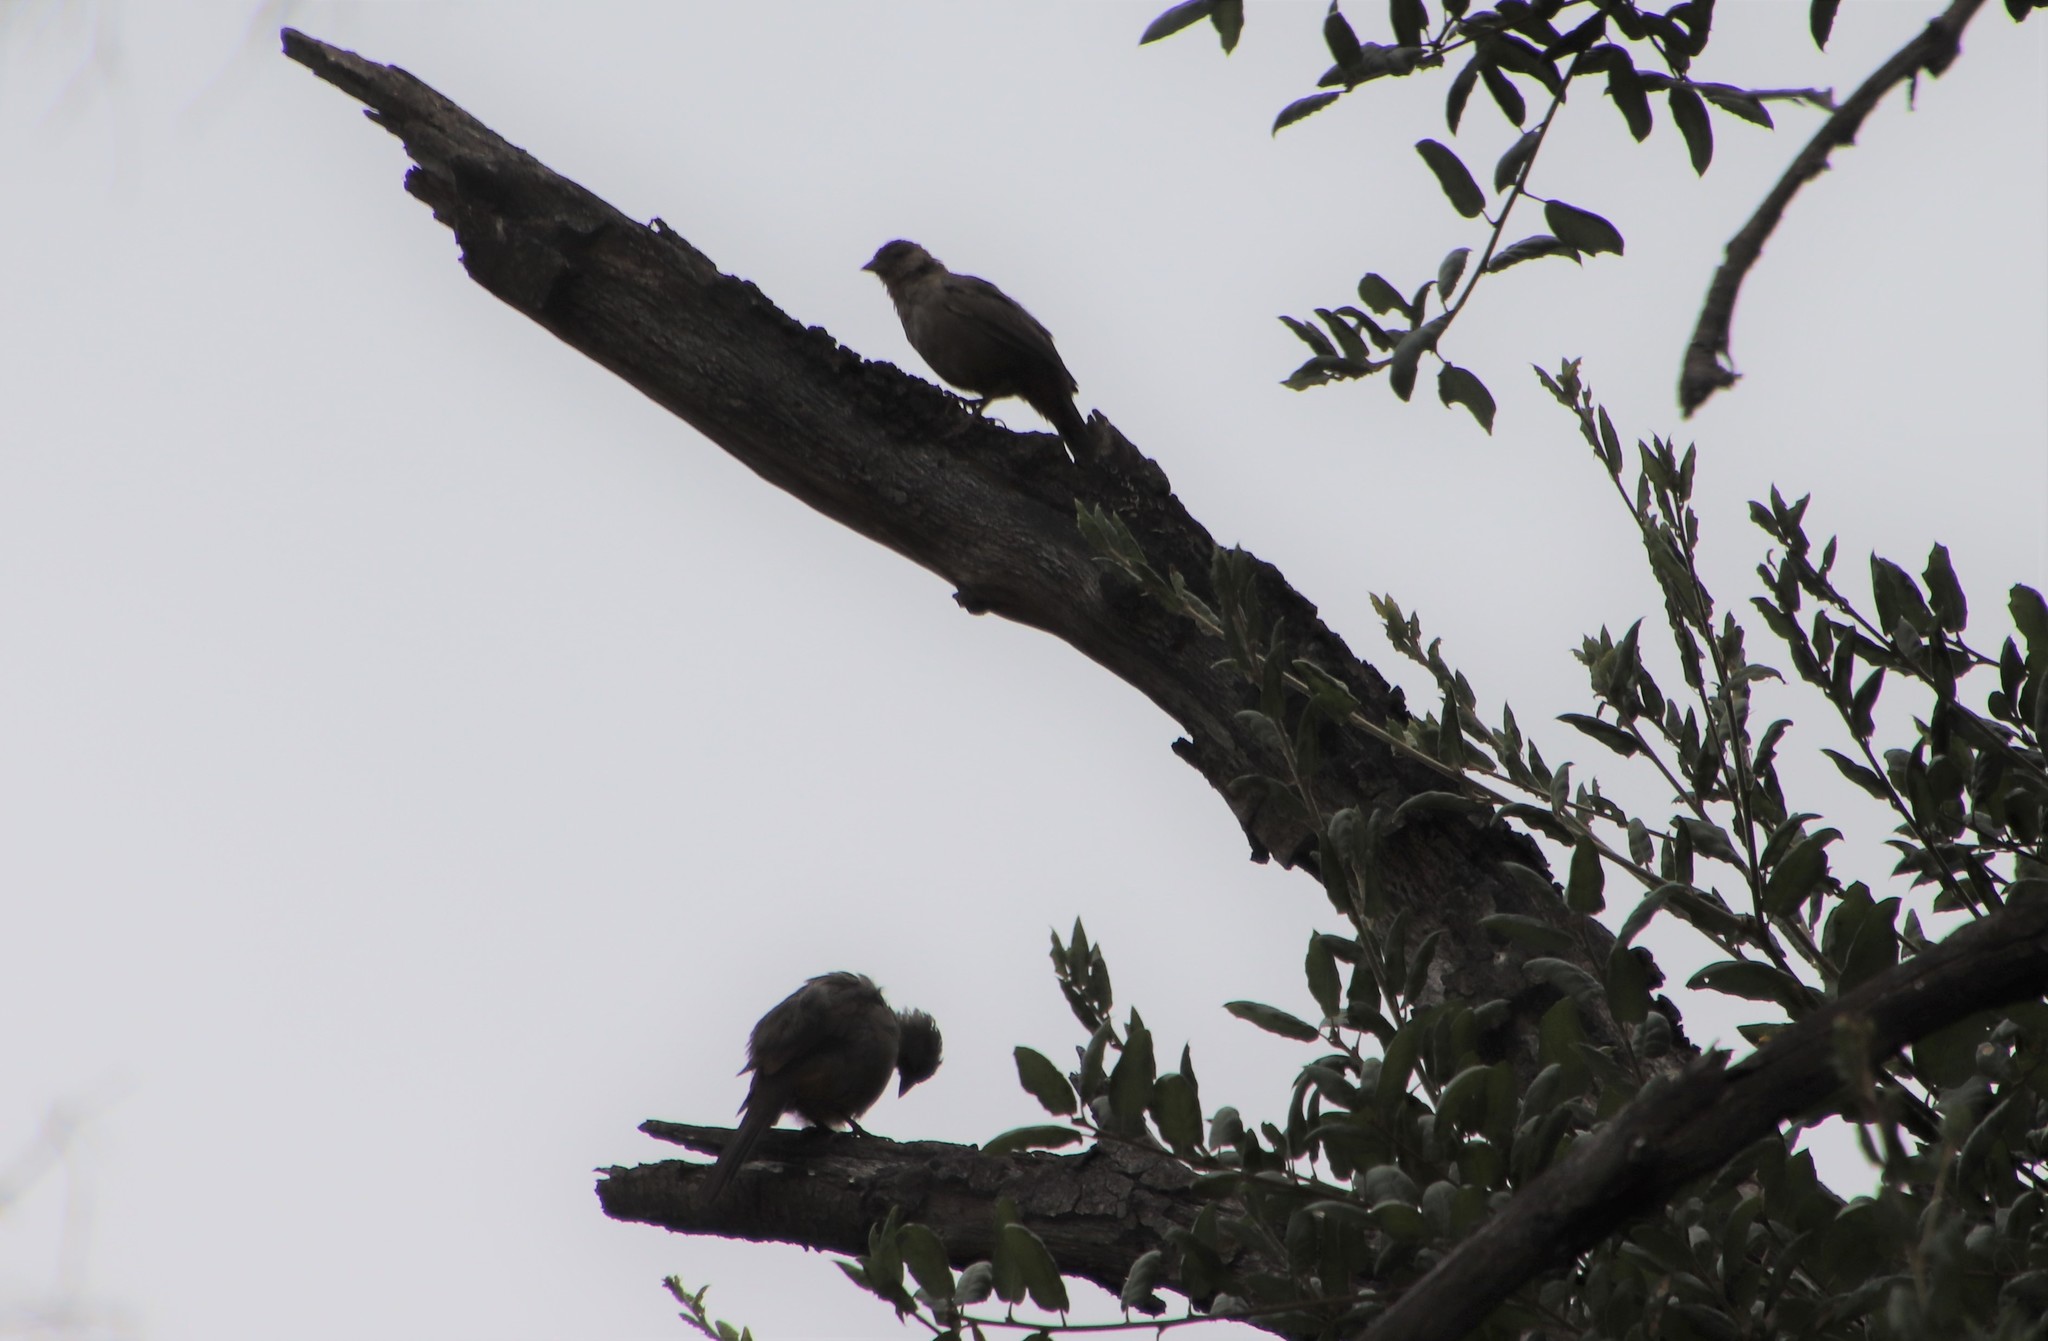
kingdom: Animalia
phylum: Chordata
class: Aves
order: Passeriformes
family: Passerellidae
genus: Melozone
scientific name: Melozone crissalis
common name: California towhee
